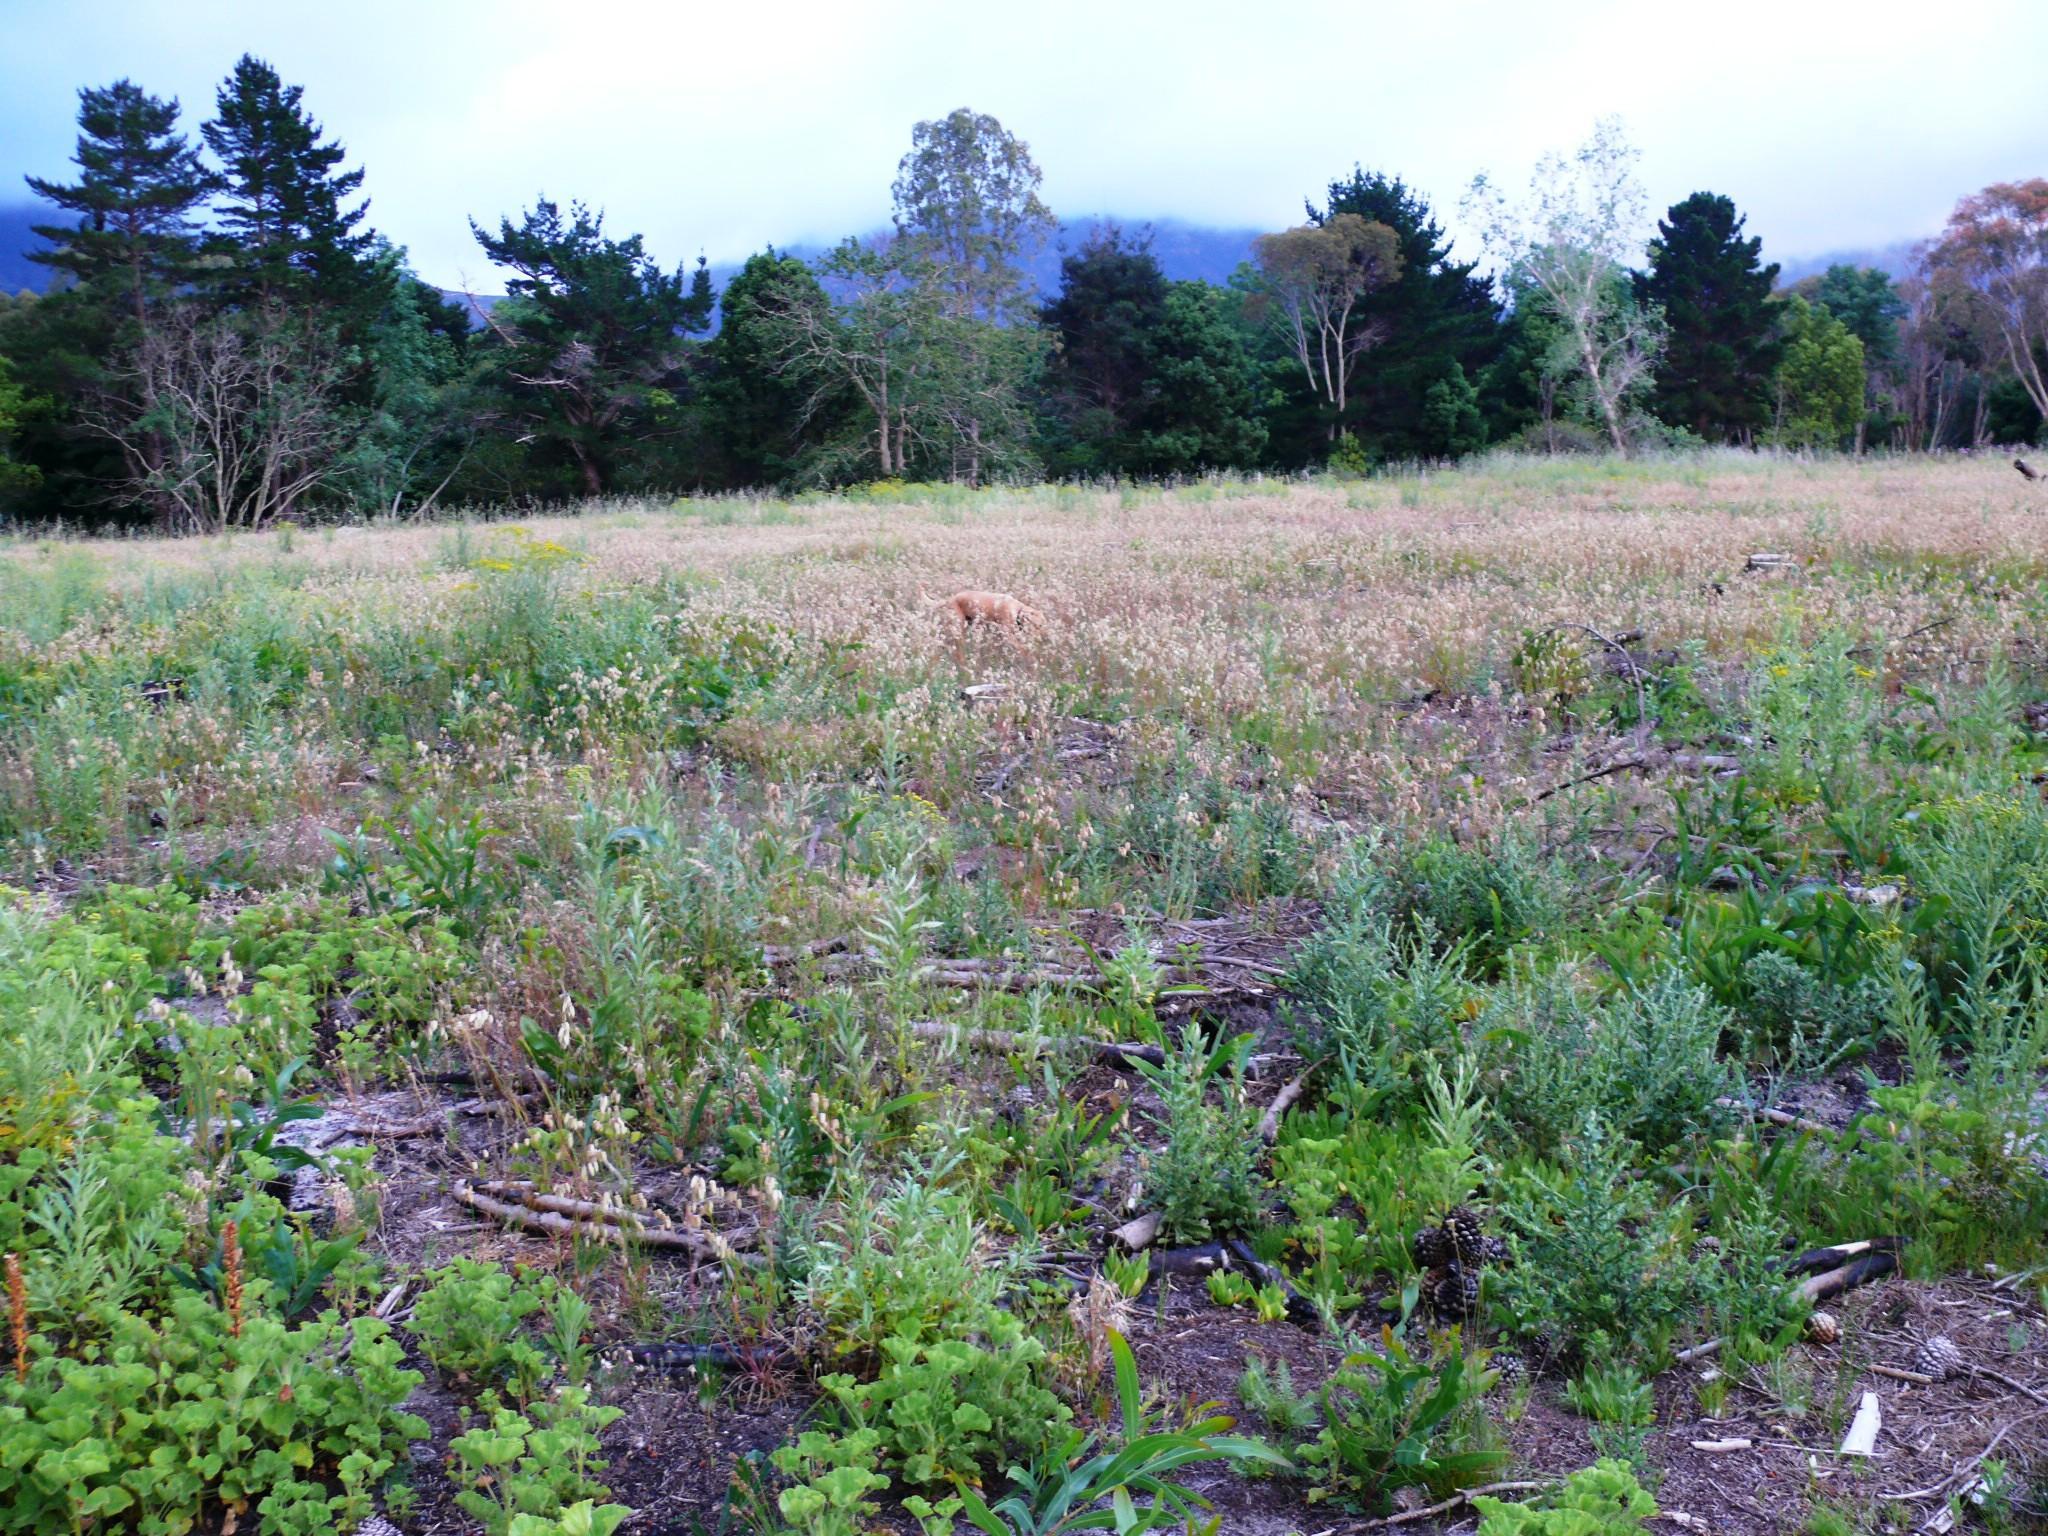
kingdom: Plantae
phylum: Tracheophyta
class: Magnoliopsida
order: Asterales
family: Asteraceae
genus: Senecio
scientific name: Senecio pterophorus
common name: Shoddy ragwort
